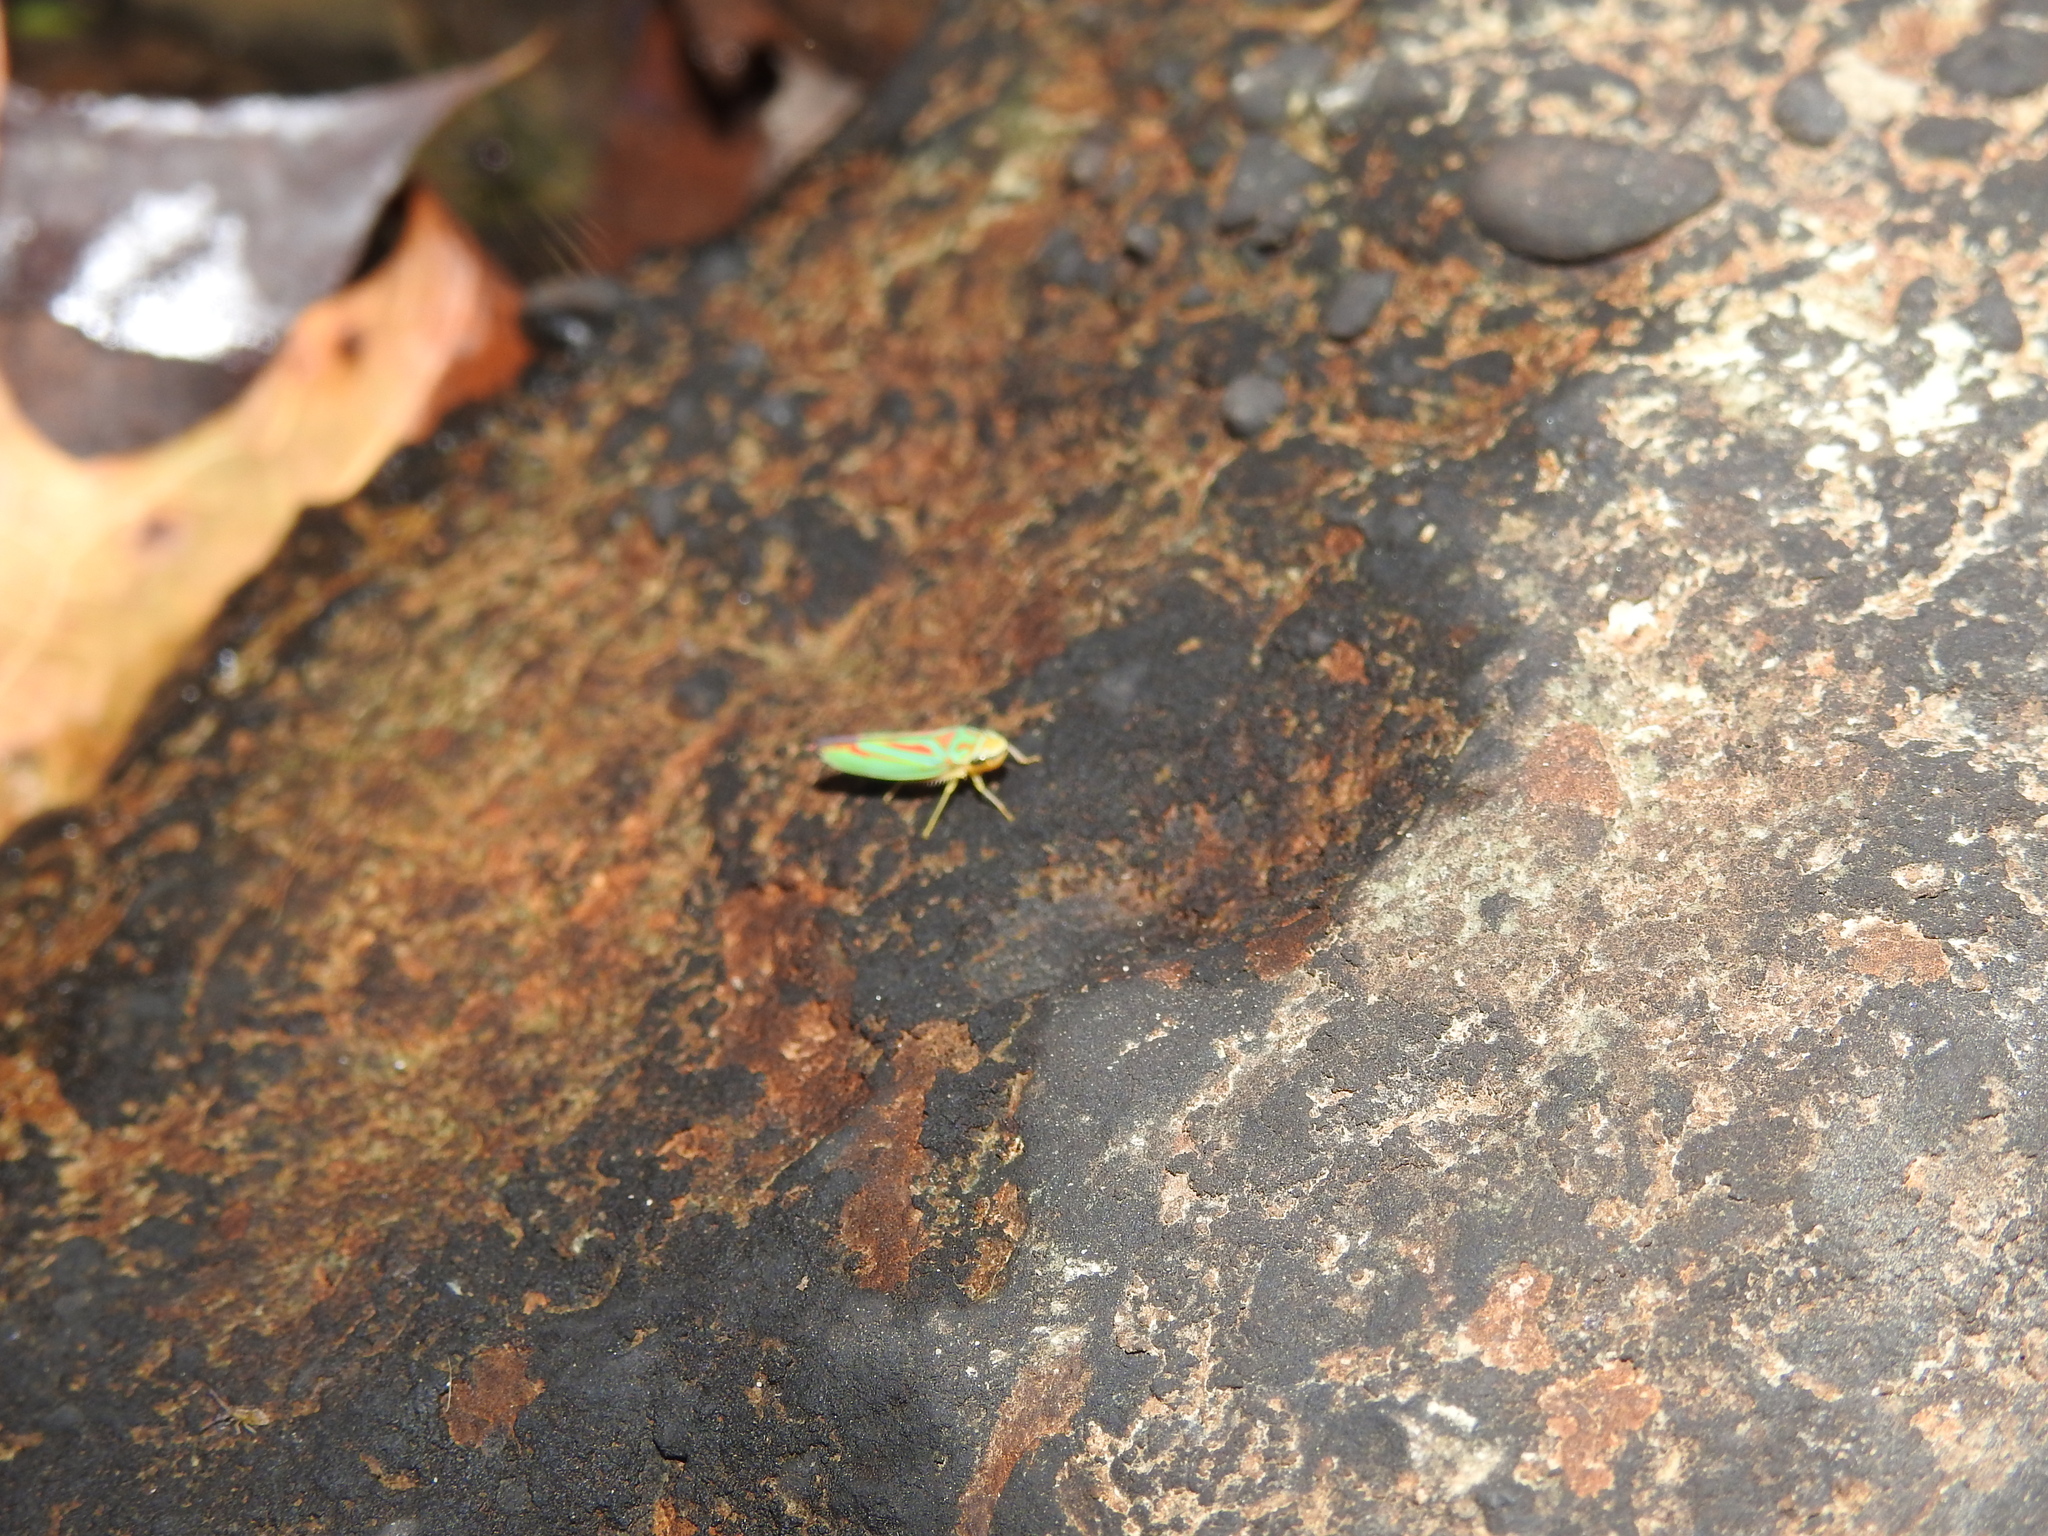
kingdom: Animalia
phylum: Arthropoda
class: Insecta
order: Hemiptera
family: Cicadellidae
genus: Graphocephala
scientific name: Graphocephala fennahi
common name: Rhododendron leafhopper
